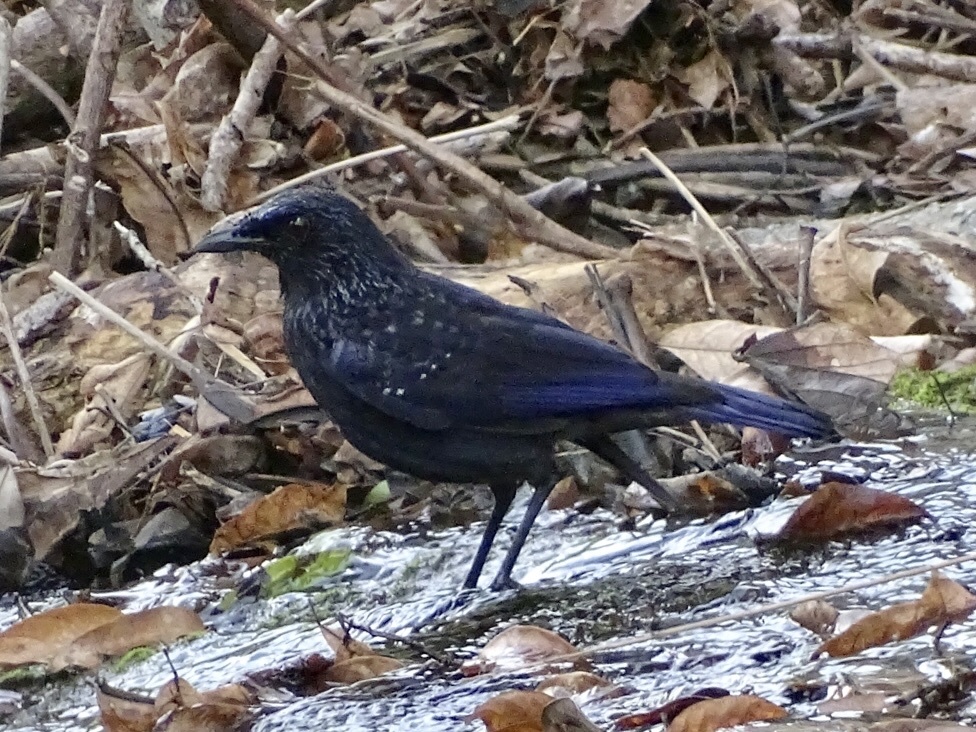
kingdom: Animalia
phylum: Chordata
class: Aves
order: Passeriformes
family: Muscicapidae
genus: Myophonus
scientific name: Myophonus caeruleus
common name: Blue whistling-thrush
